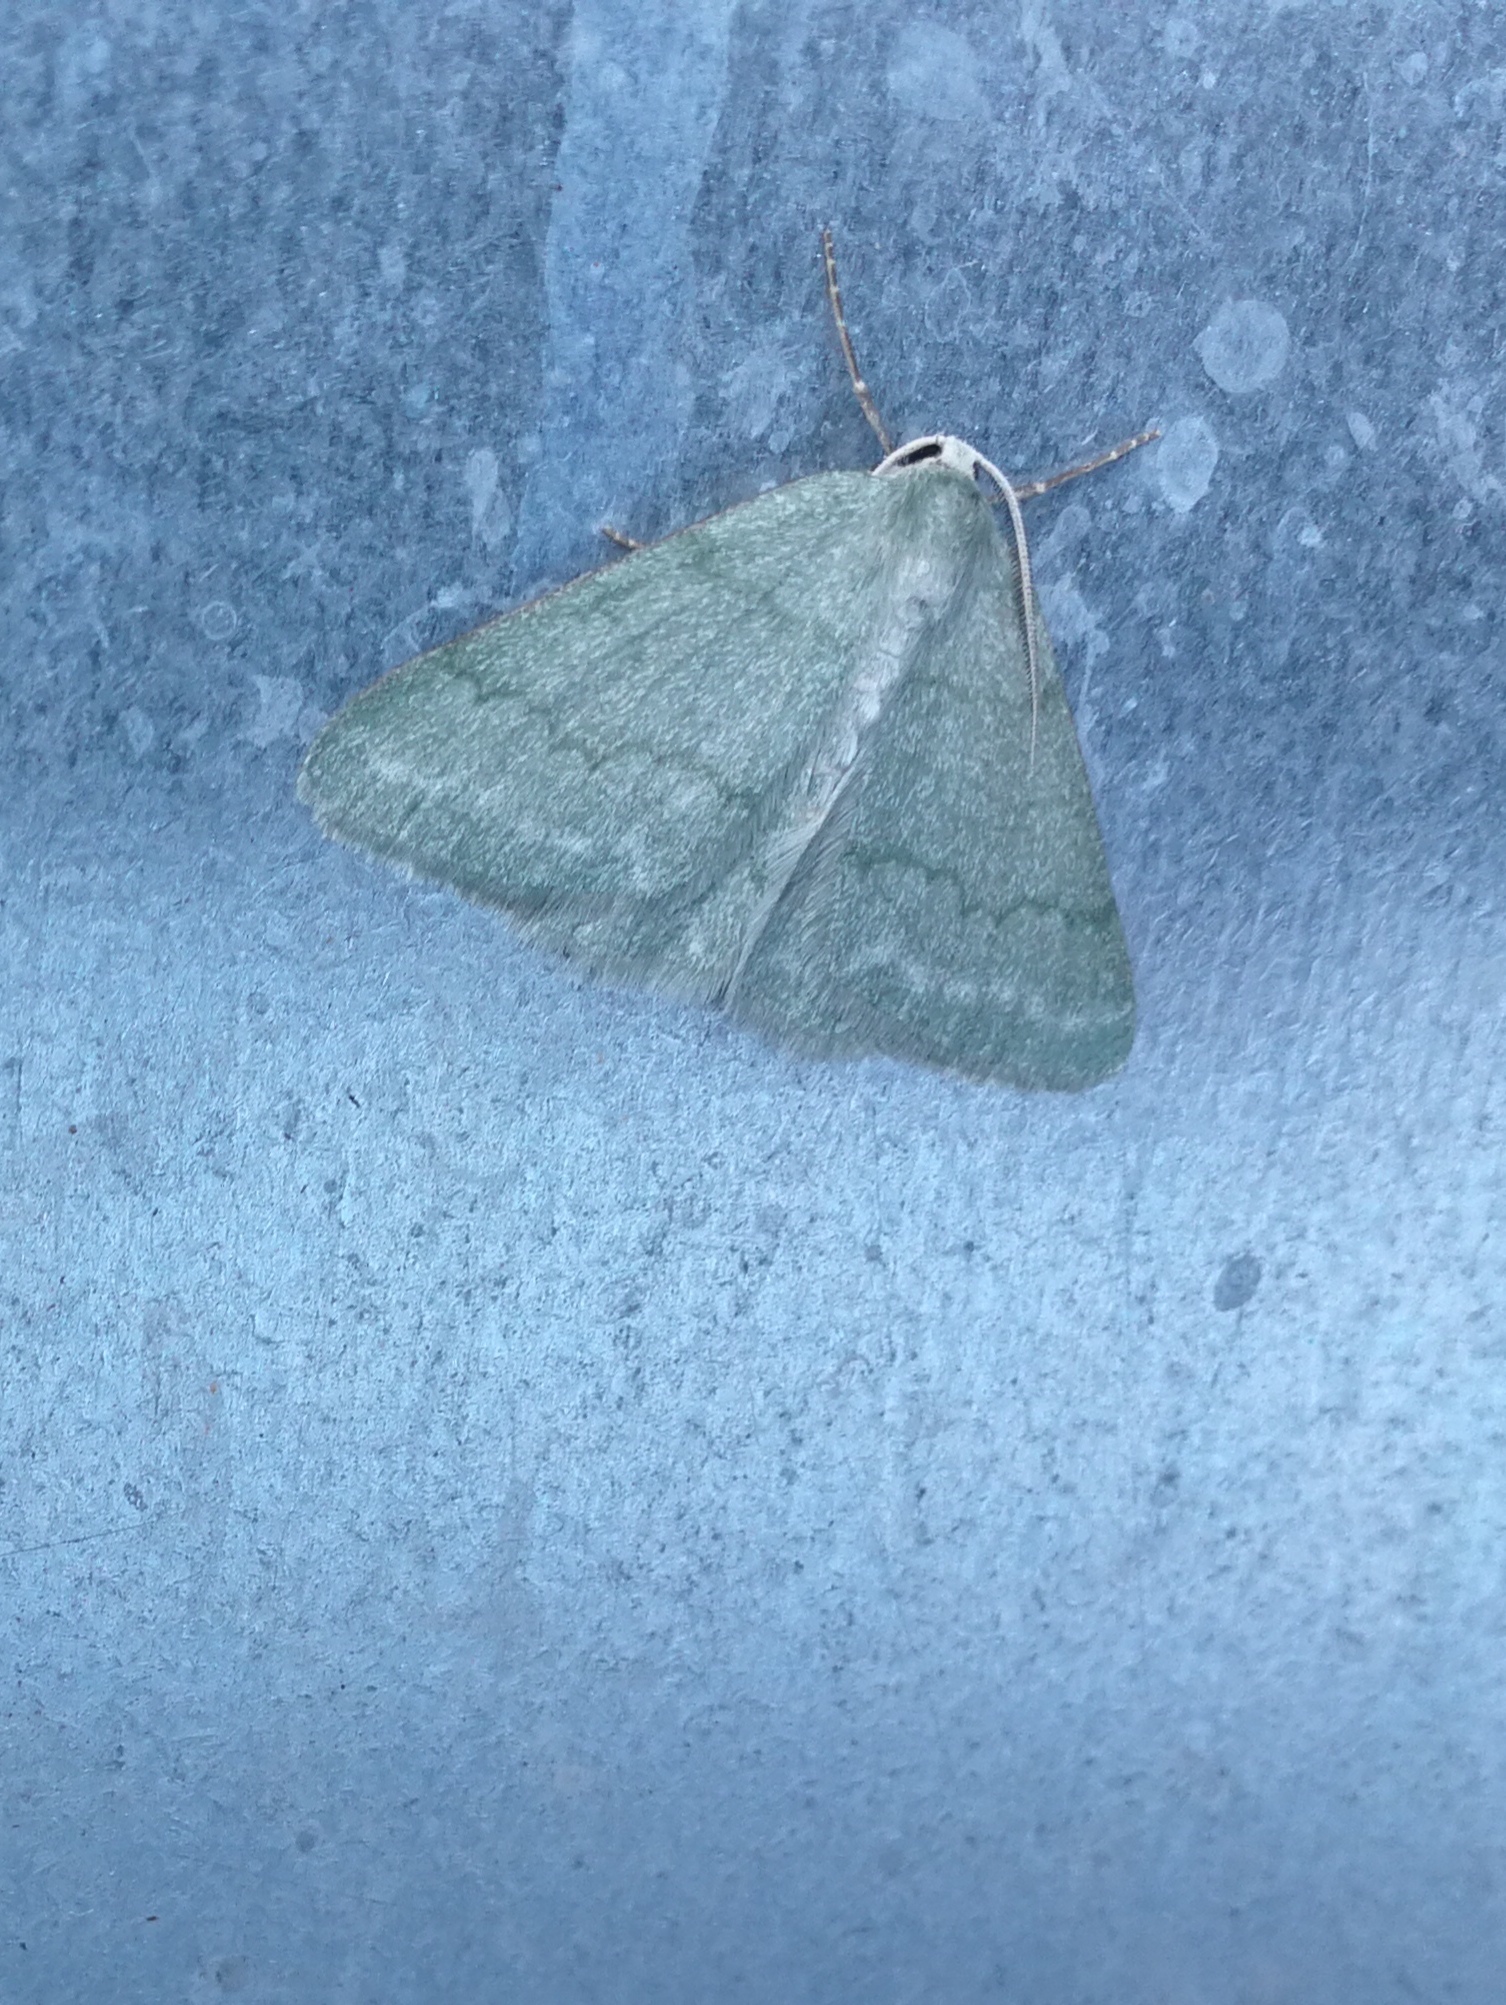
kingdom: Animalia
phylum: Arthropoda
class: Insecta
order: Lepidoptera
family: Geometridae
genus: Pseudoterpna
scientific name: Pseudoterpna pruinata
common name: Grass emerald
